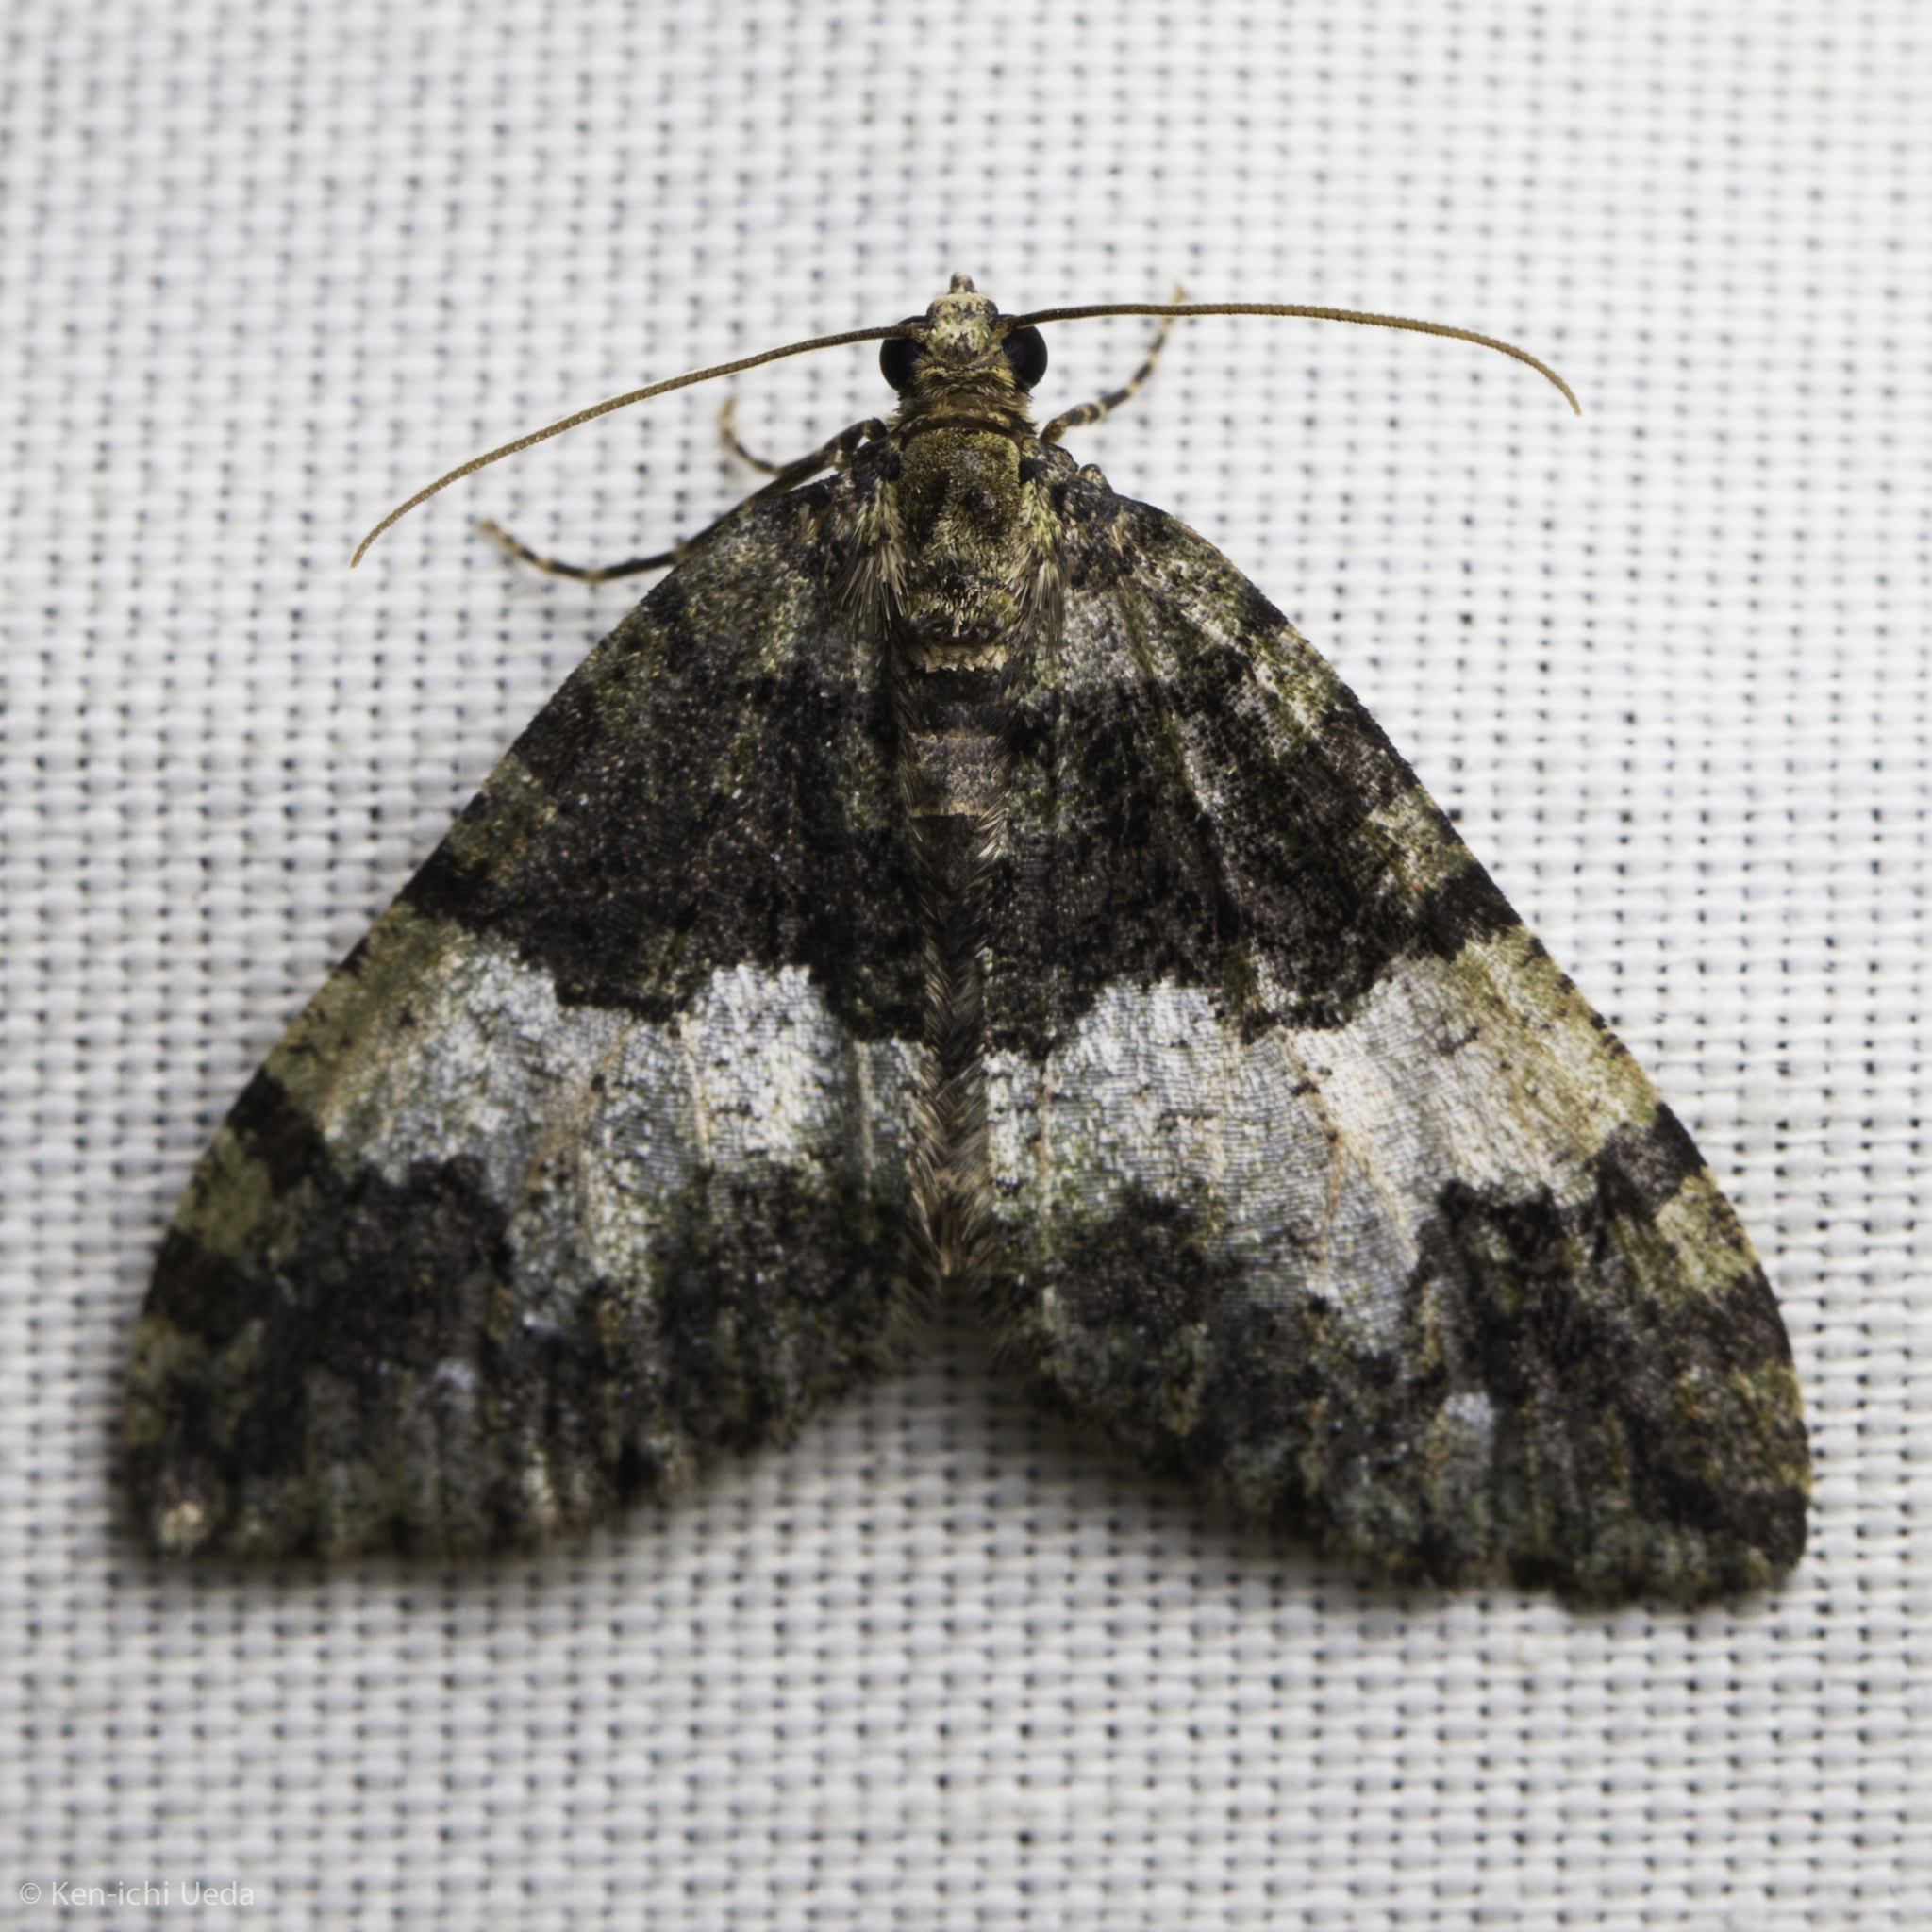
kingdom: Animalia
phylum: Arthropoda
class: Insecta
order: Lepidoptera
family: Geometridae
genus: Hydriomena
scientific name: Hydriomena albifasciata
